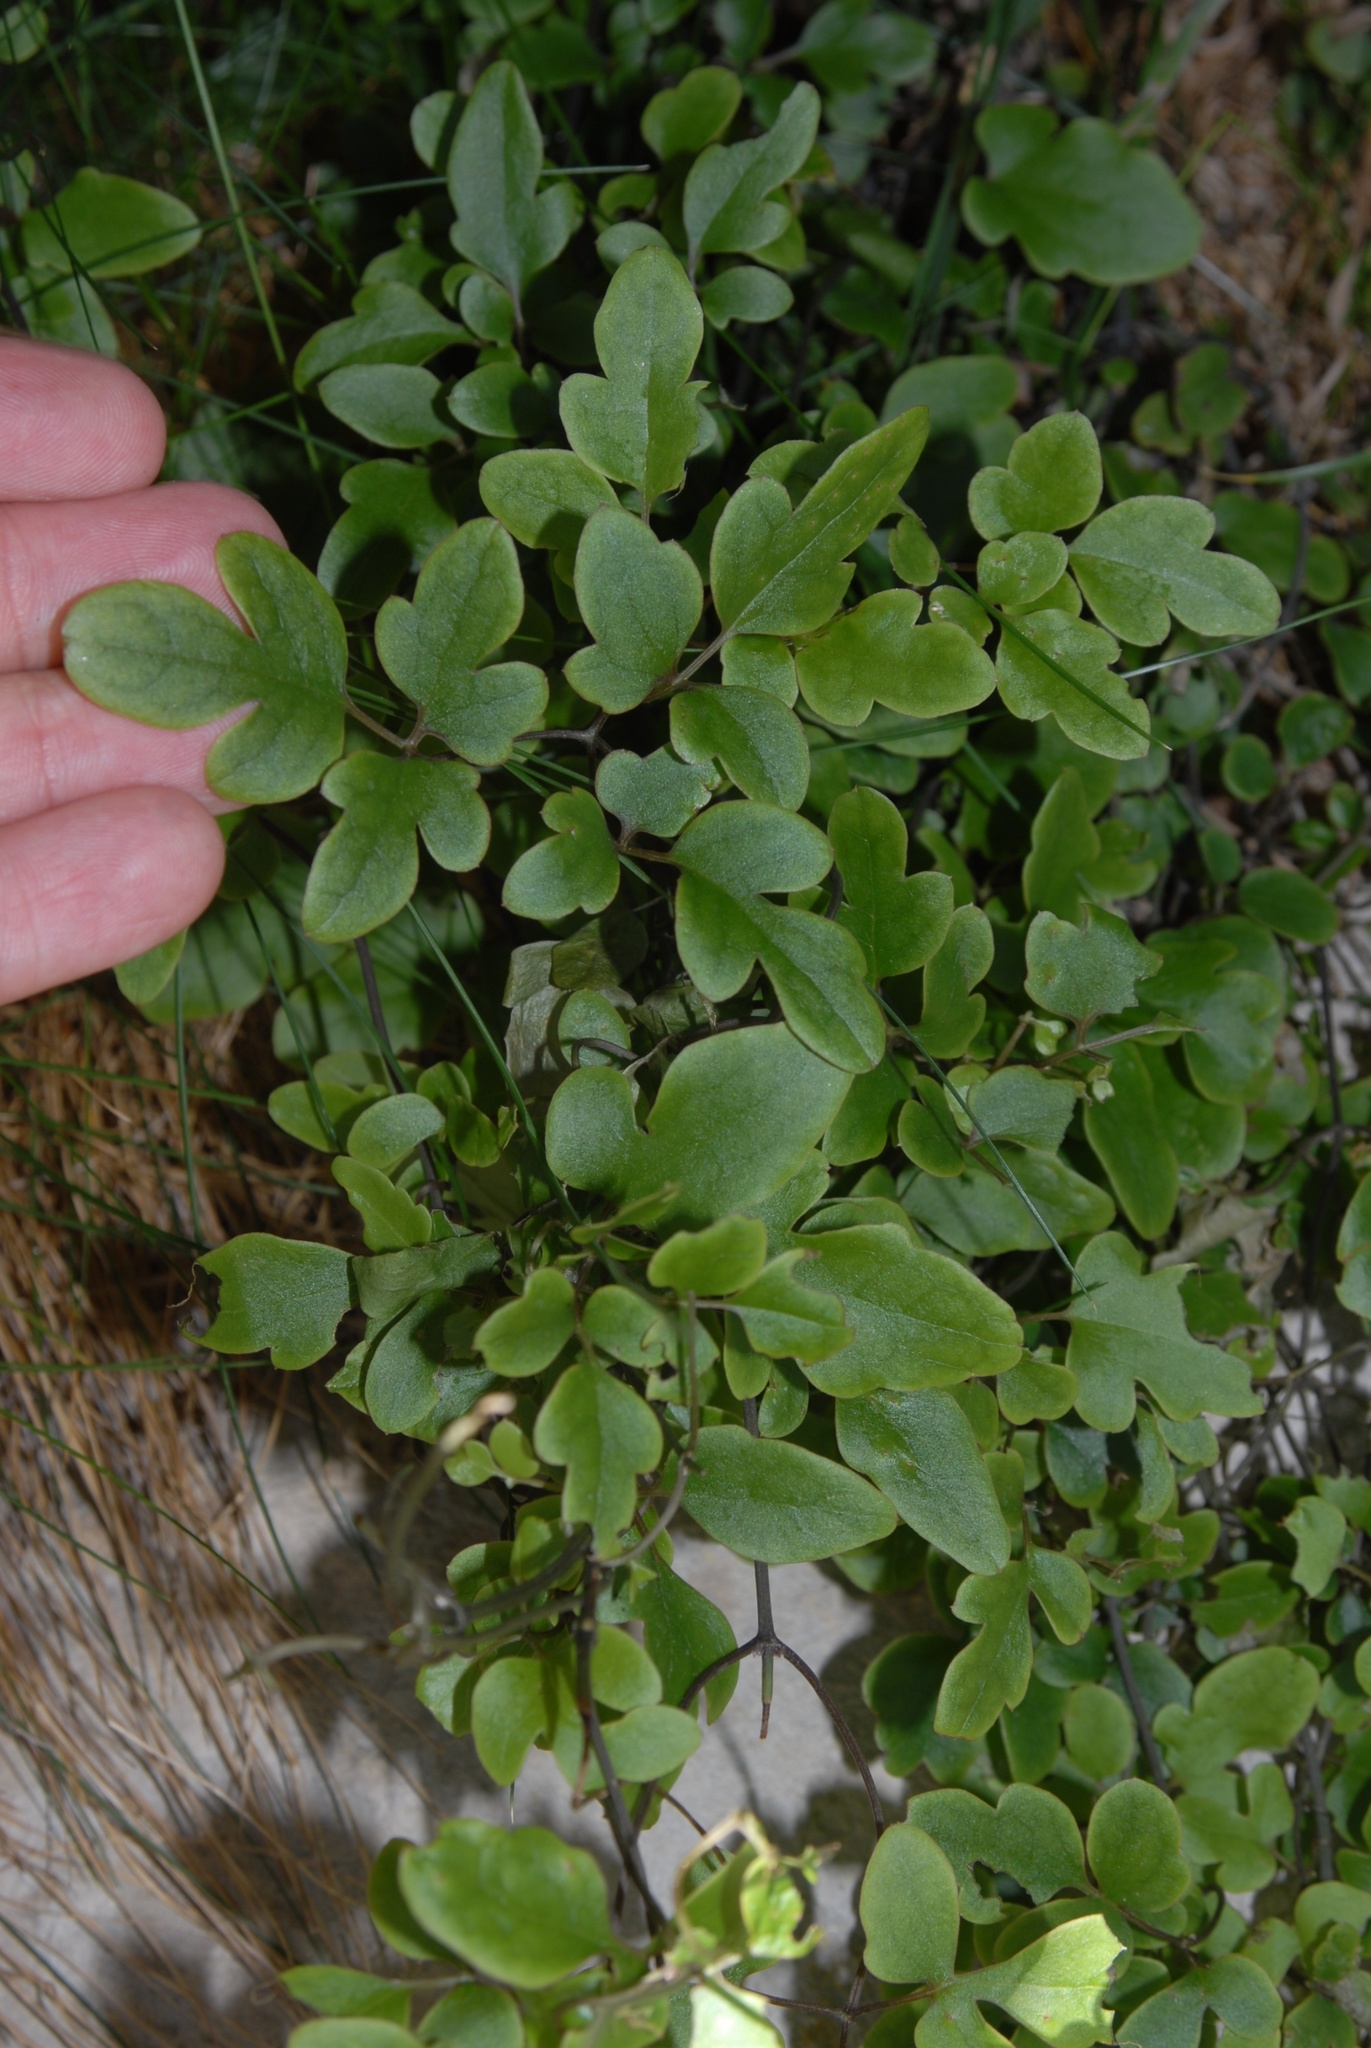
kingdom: Plantae
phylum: Tracheophyta
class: Magnoliopsida
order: Ranunculales
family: Ranunculaceae
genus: Clematis
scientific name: Clematis petriei
